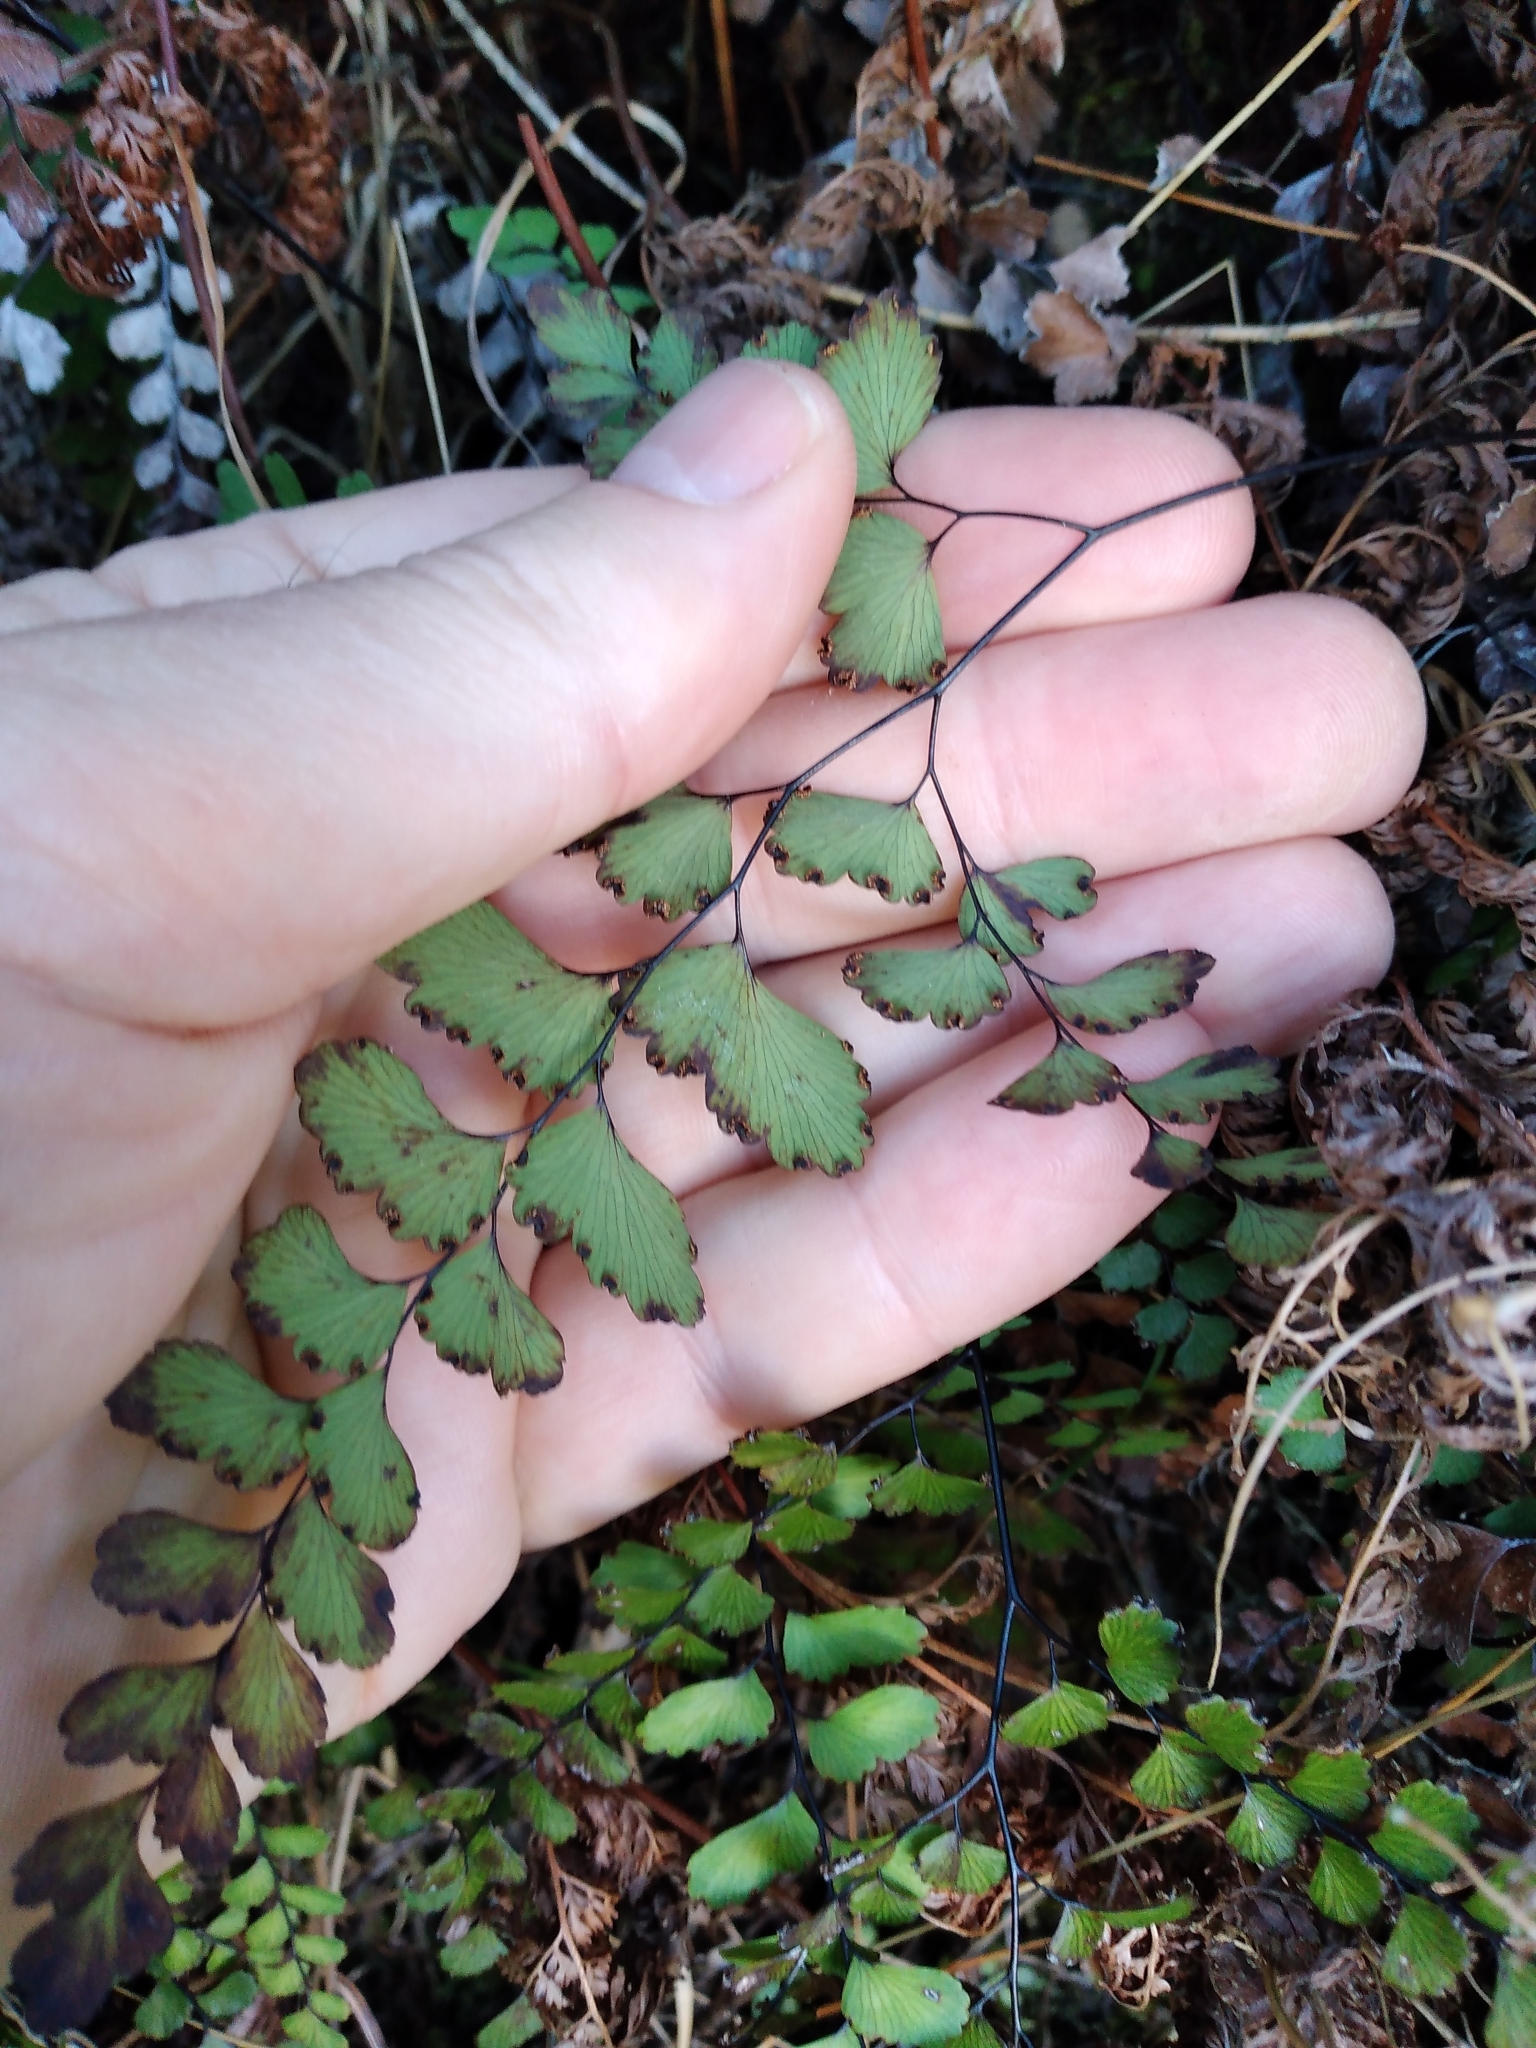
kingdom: Plantae
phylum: Tracheophyta
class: Polypodiopsida
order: Polypodiales
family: Pteridaceae
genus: Adiantum
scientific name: Adiantum cunninghamii
